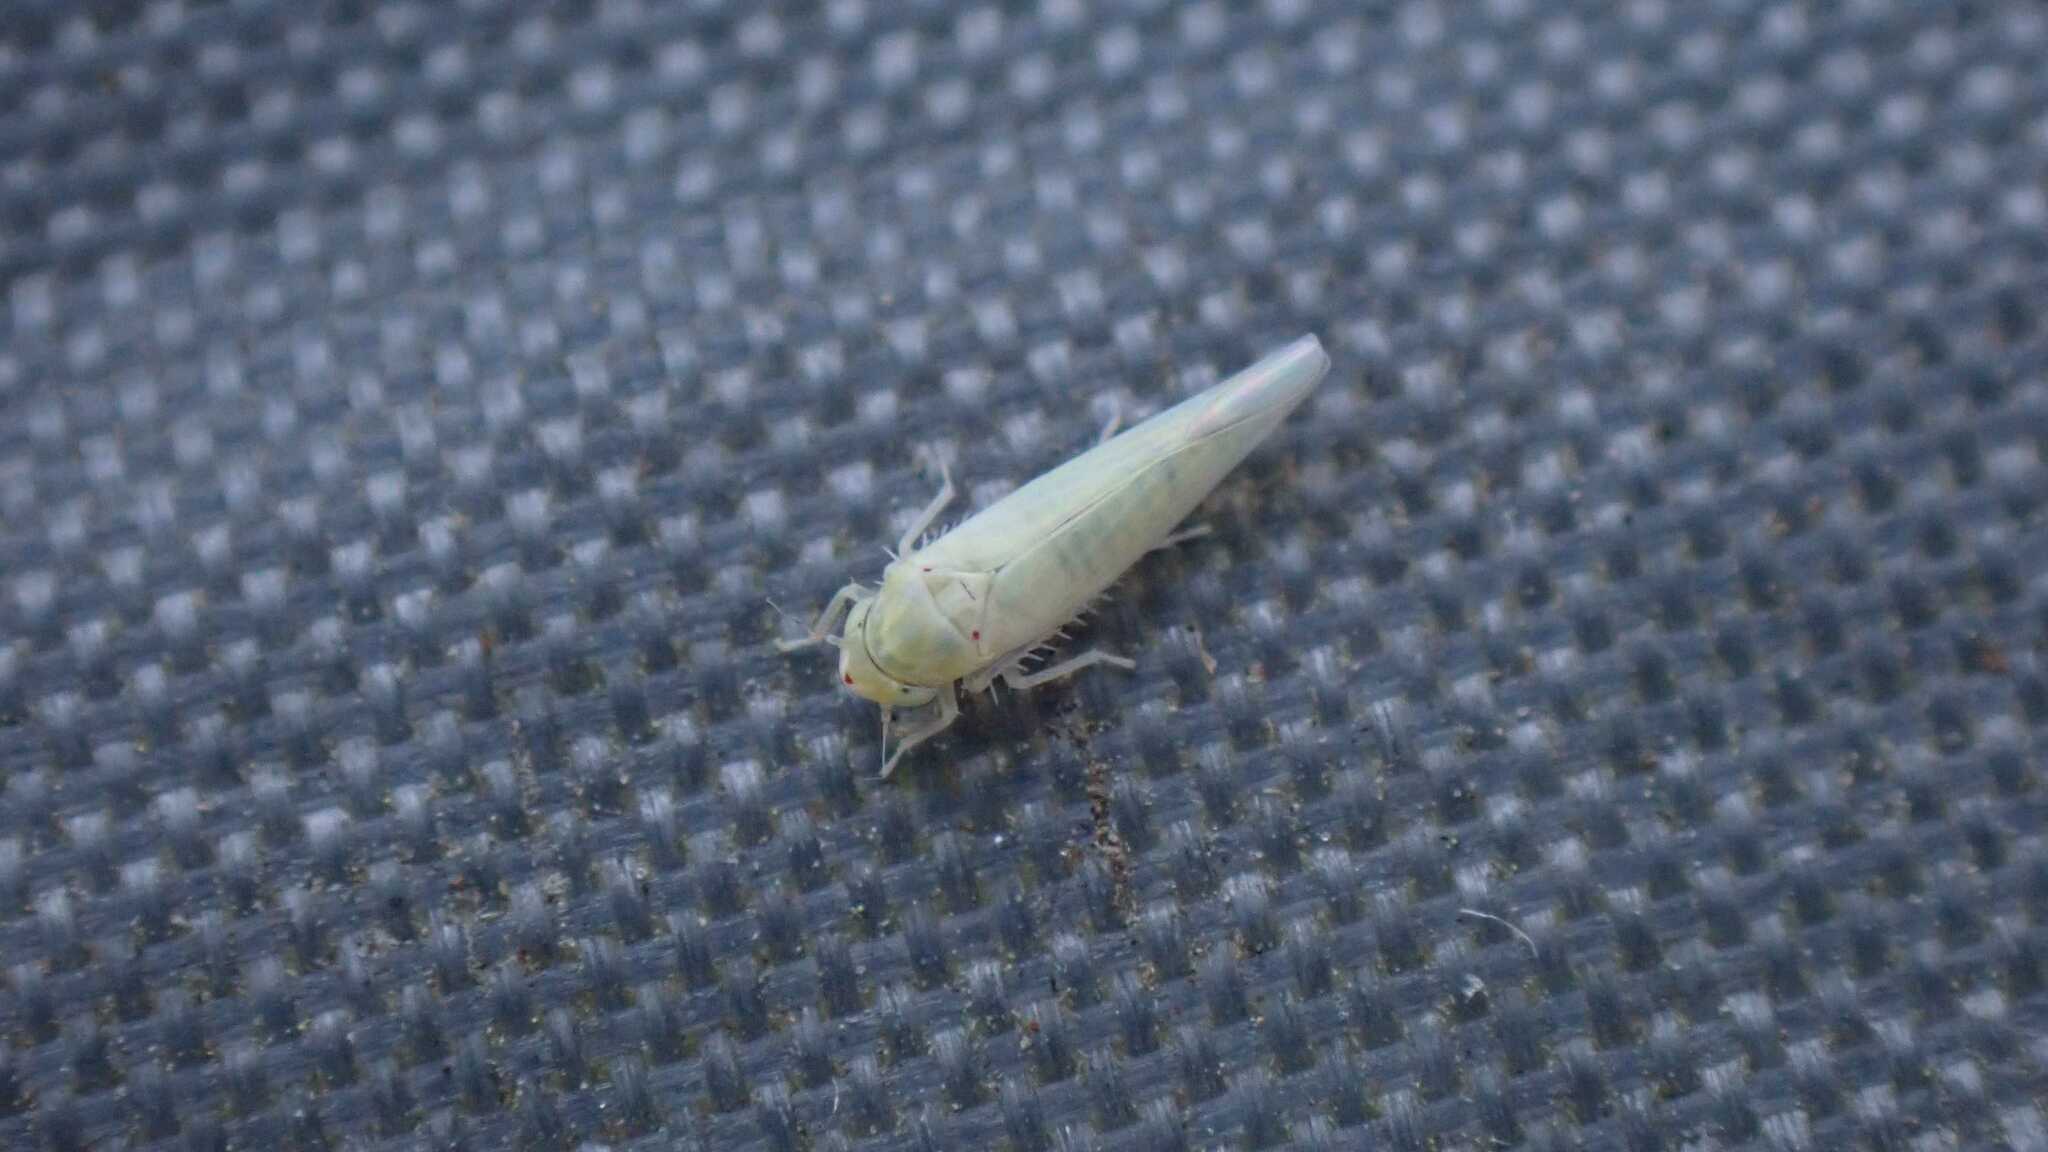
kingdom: Animalia
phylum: Arthropoda
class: Insecta
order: Hemiptera
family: Cicadellidae
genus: Zygina
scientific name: Zygina nivea
